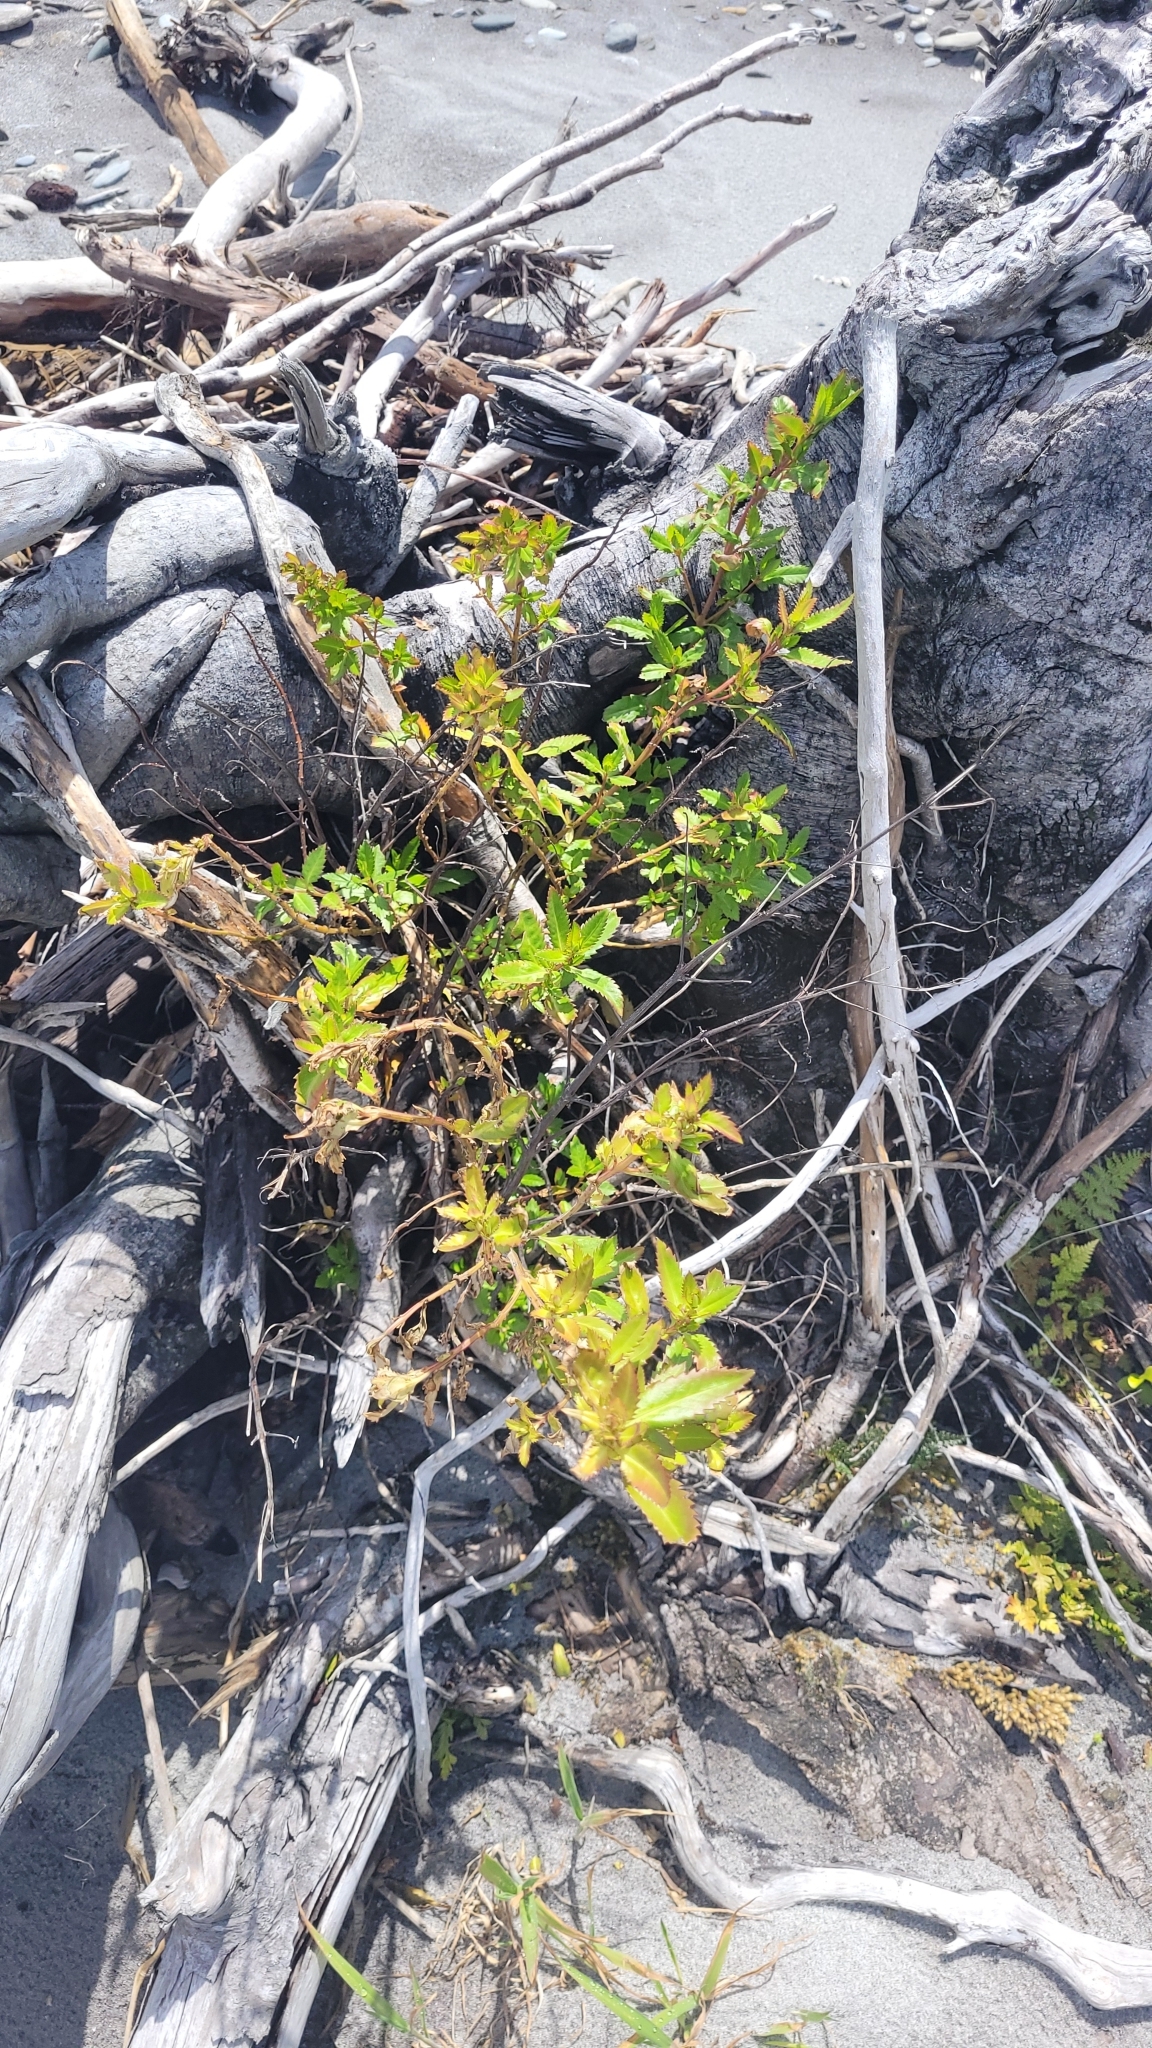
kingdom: Plantae
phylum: Tracheophyta
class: Magnoliopsida
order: Saxifragales
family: Haloragaceae
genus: Haloragis
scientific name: Haloragis erecta
